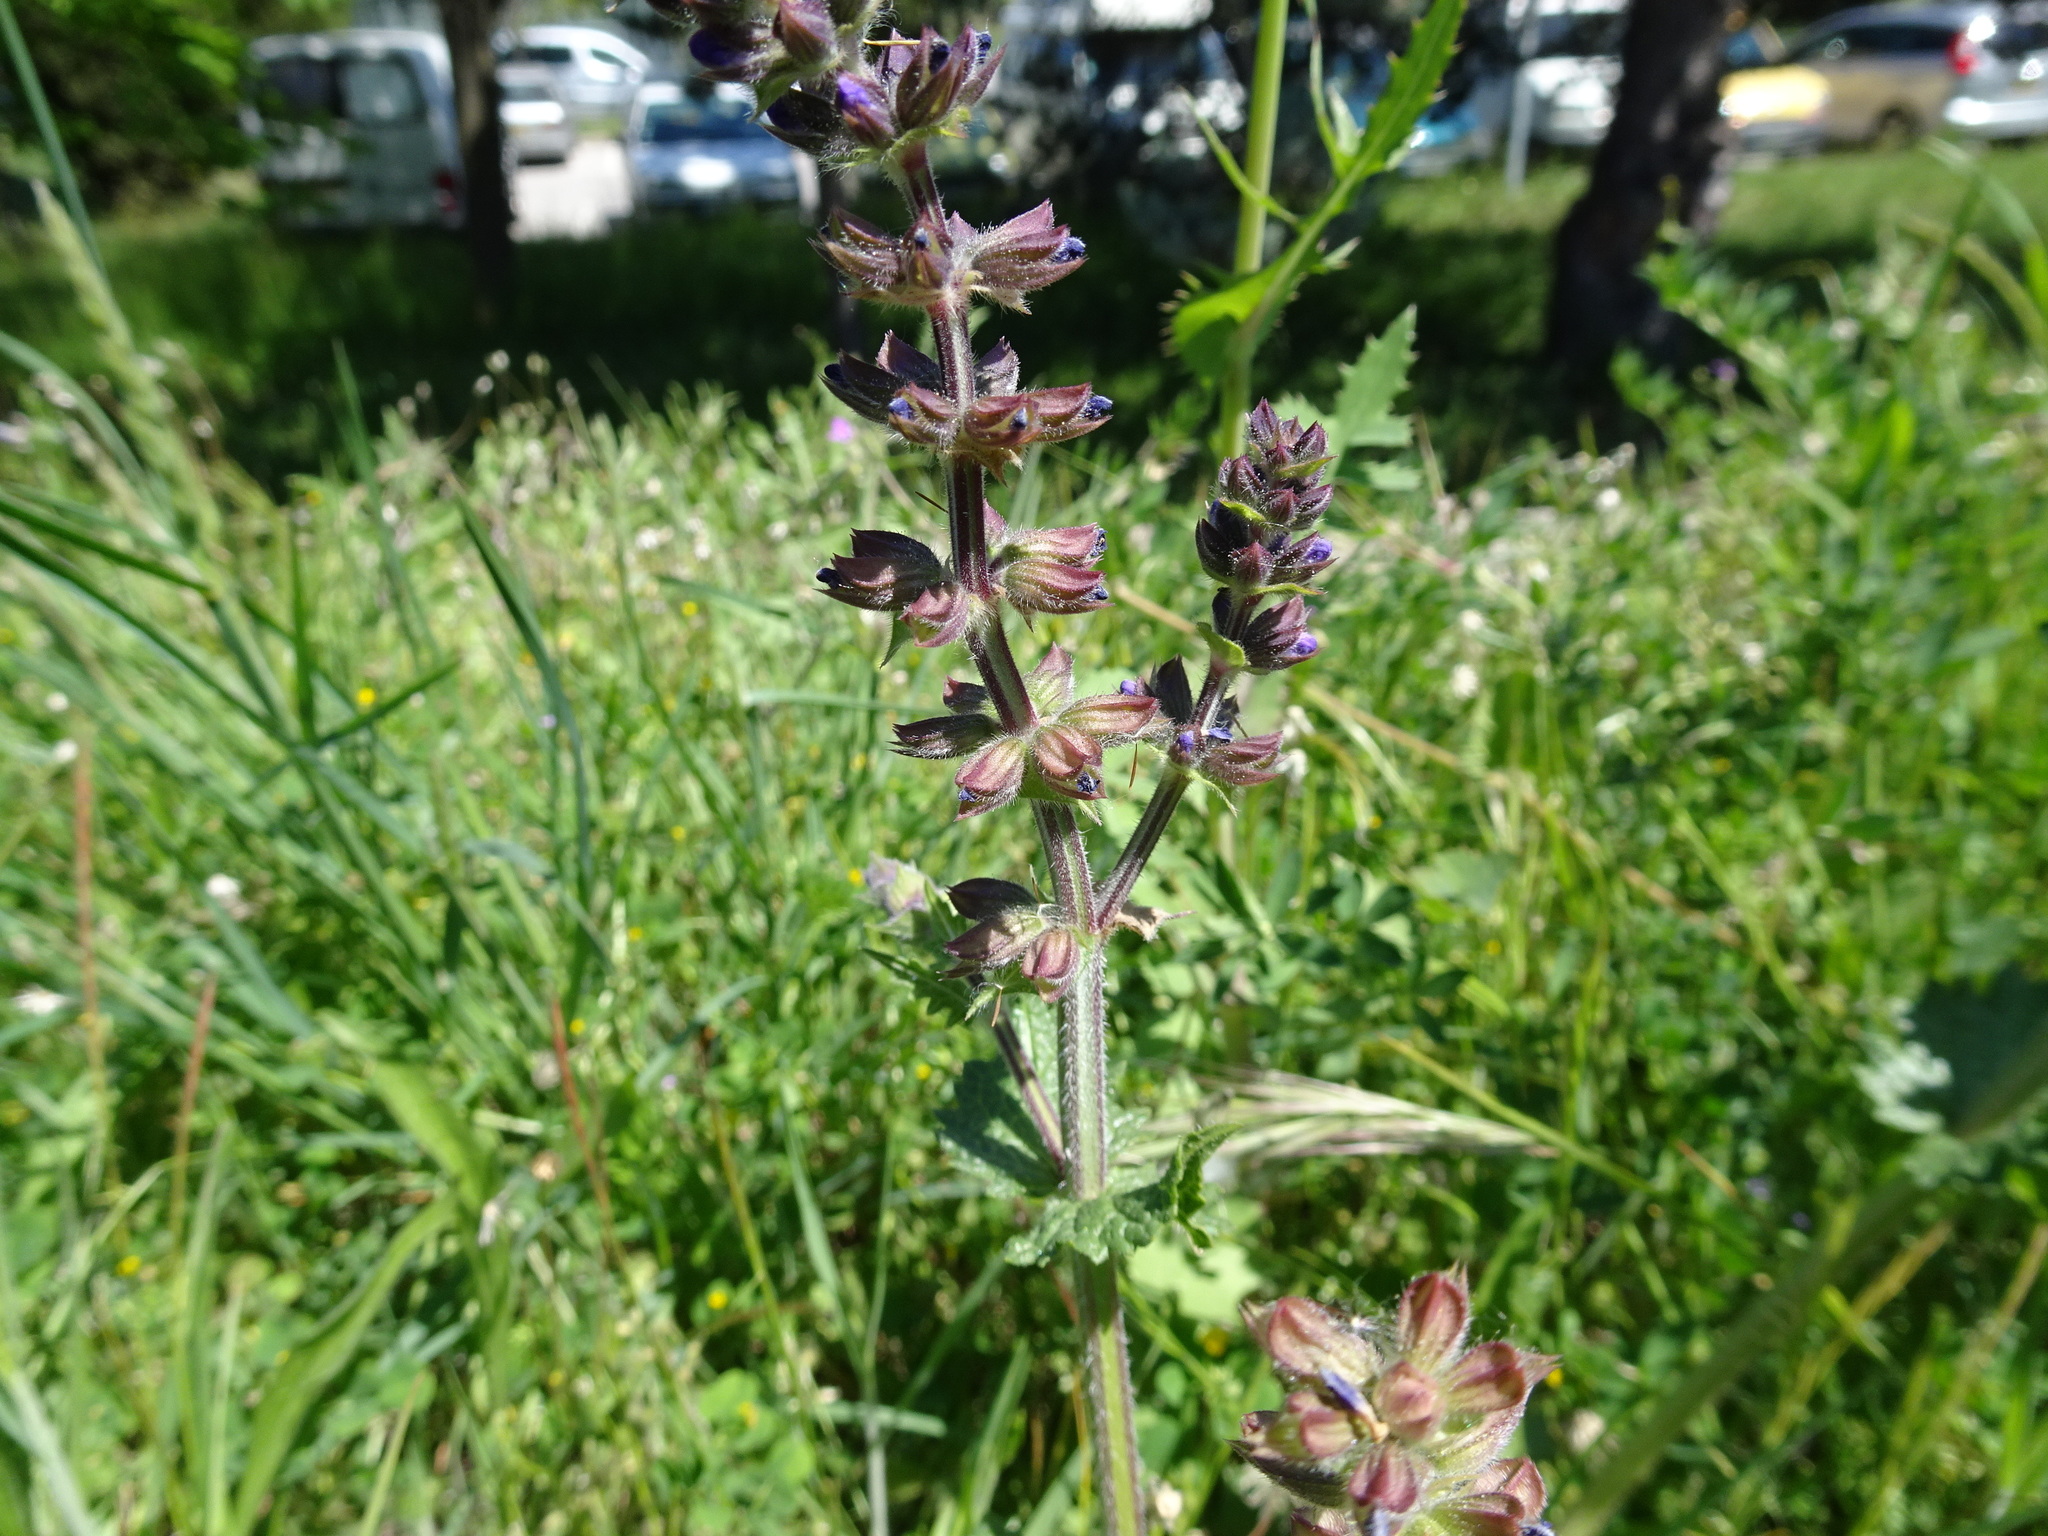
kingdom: Plantae
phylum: Tracheophyta
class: Magnoliopsida
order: Lamiales
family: Lamiaceae
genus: Salvia
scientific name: Salvia verbenaca
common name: Wild clary
